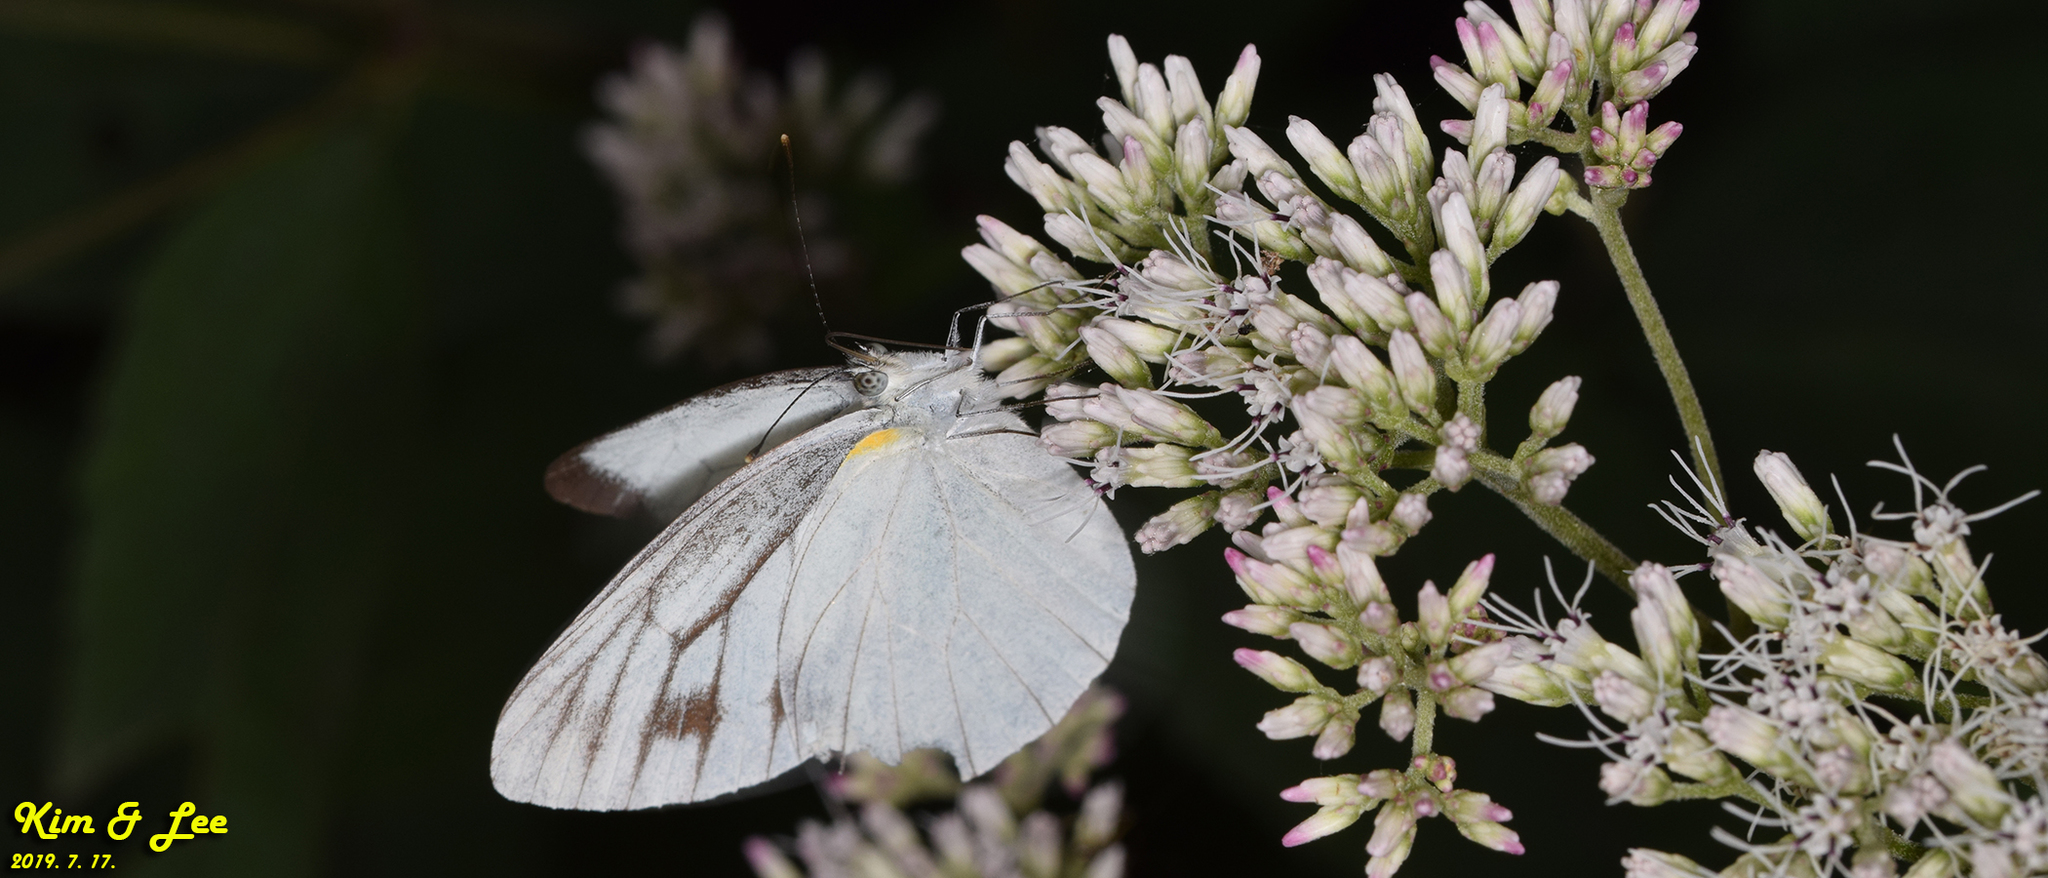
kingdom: Animalia
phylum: Arthropoda
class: Insecta
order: Lepidoptera
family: Pieridae
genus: Pieris
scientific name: Pieris melete
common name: Asian green-veined white
